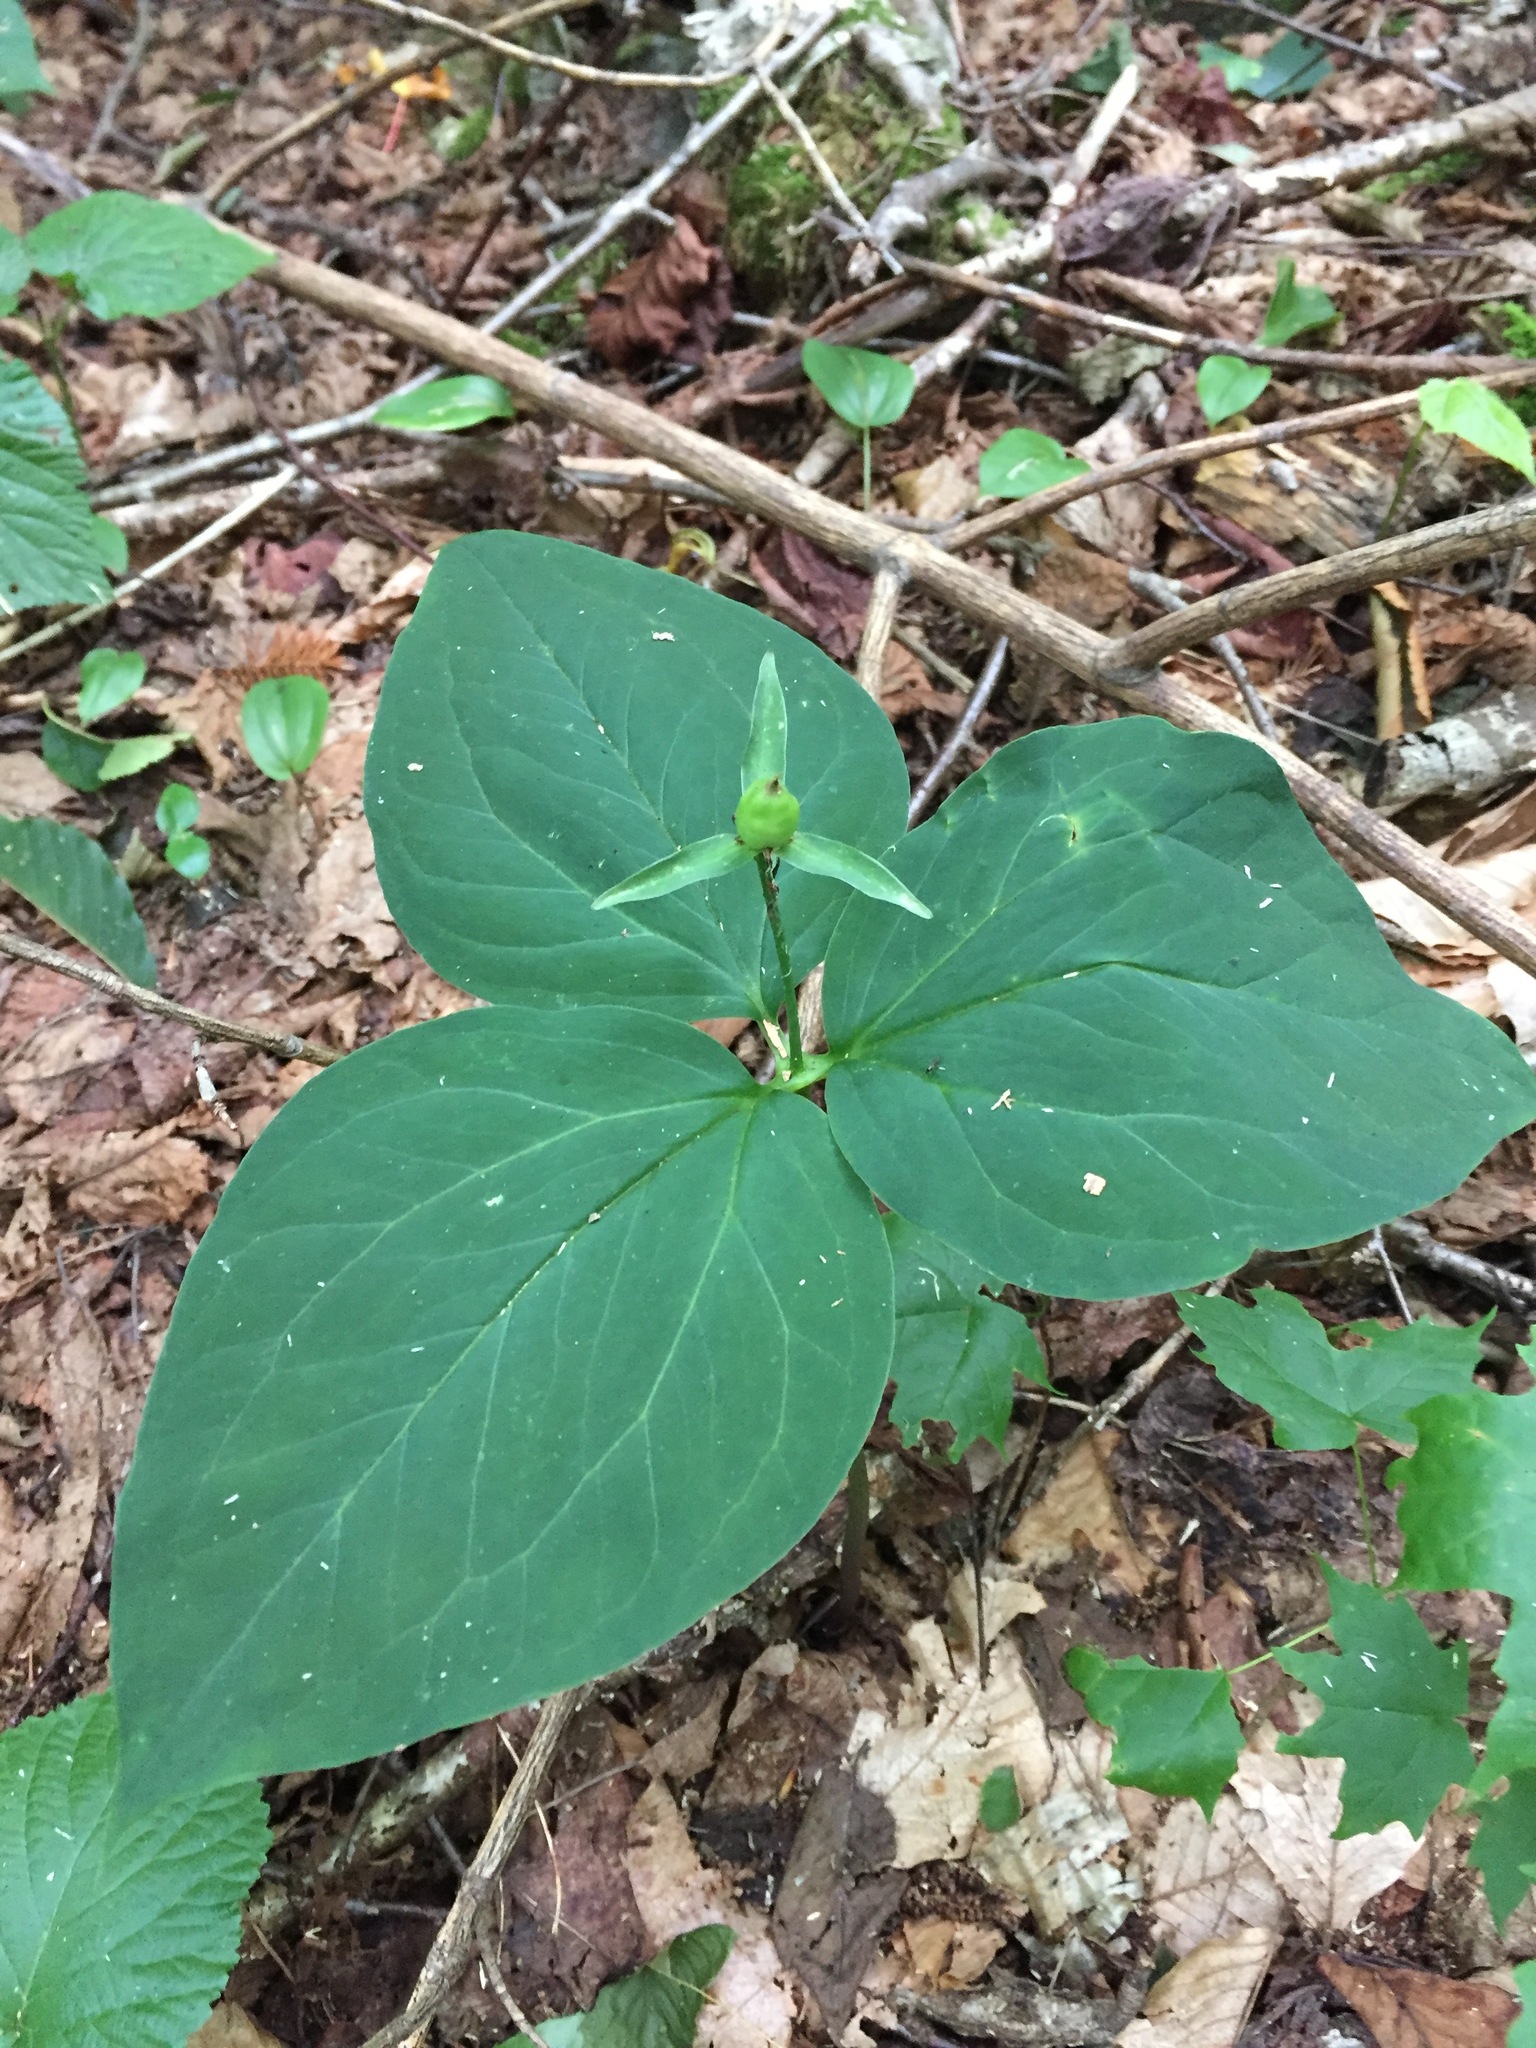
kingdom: Plantae
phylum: Tracheophyta
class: Liliopsida
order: Liliales
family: Melanthiaceae
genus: Trillium
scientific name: Trillium undulatum
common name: Paint trillium
